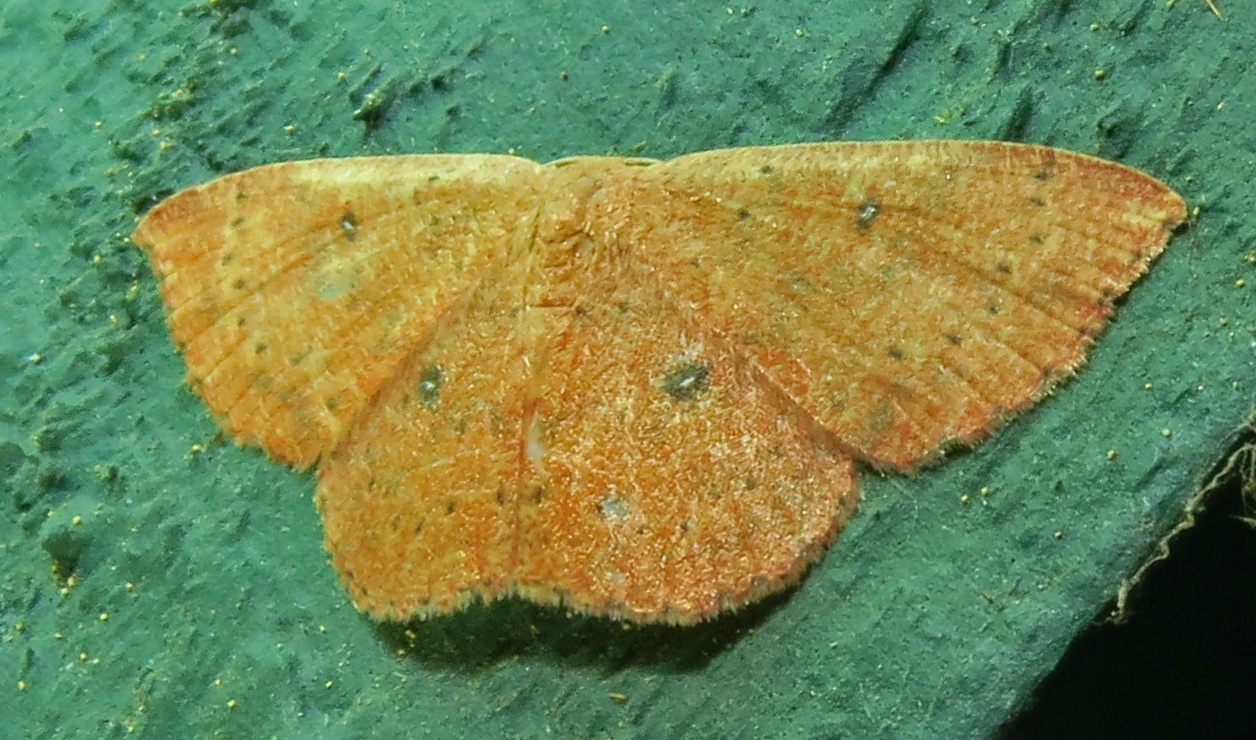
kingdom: Animalia
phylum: Arthropoda
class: Insecta
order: Lepidoptera
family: Geometridae
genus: Cyclophora
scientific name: Cyclophora packardi
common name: Packard's wave
